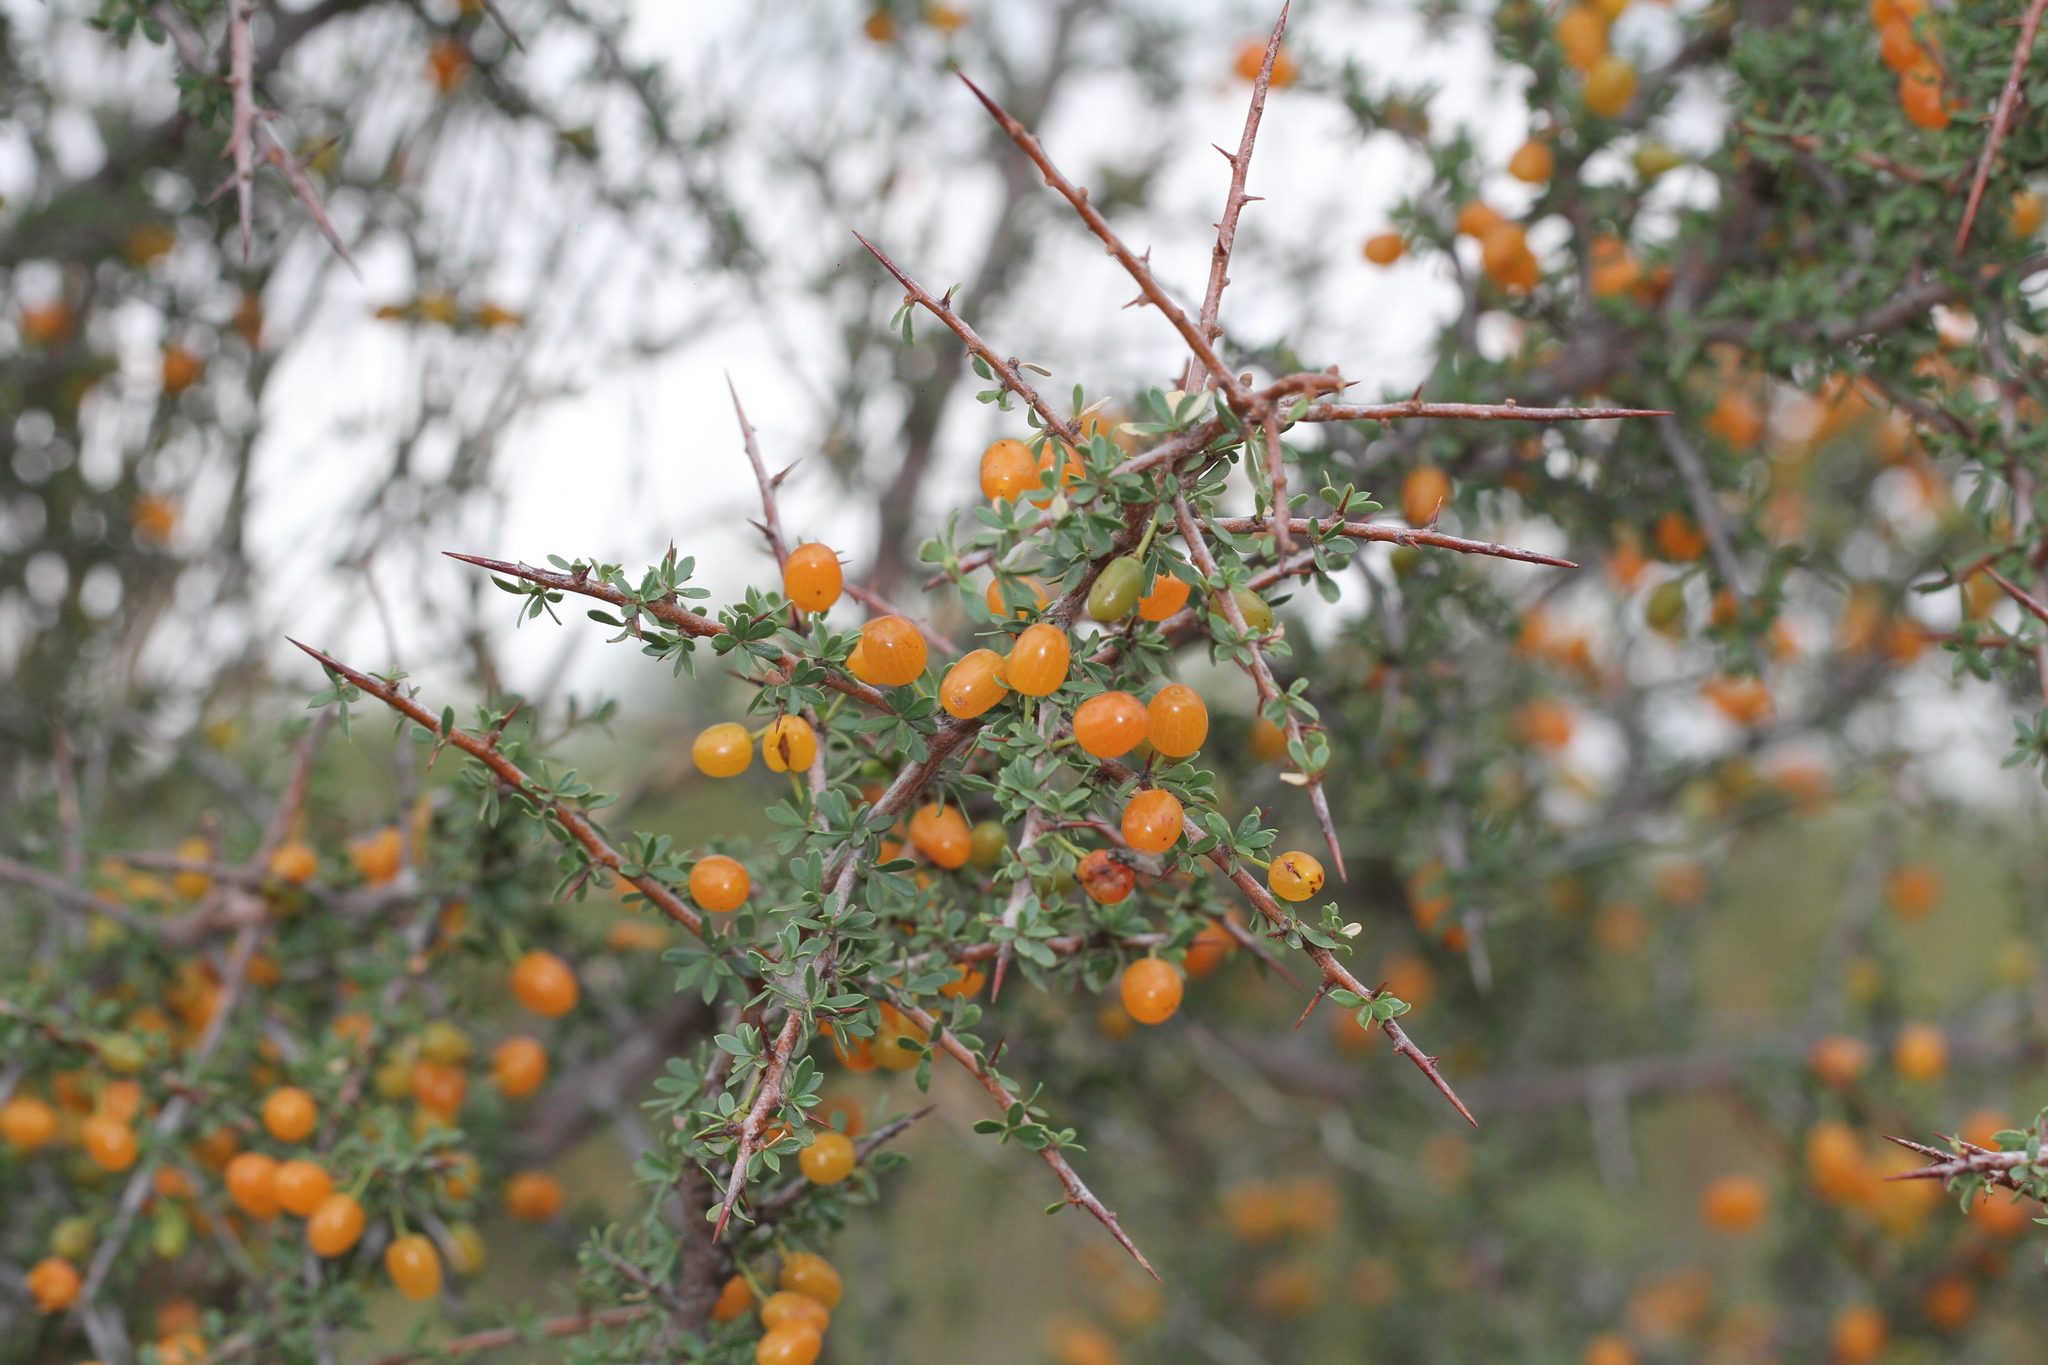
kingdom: Plantae
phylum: Tracheophyta
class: Magnoliopsida
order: Rosales
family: Rhamnaceae
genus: Condalia
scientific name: Condalia microphylla
